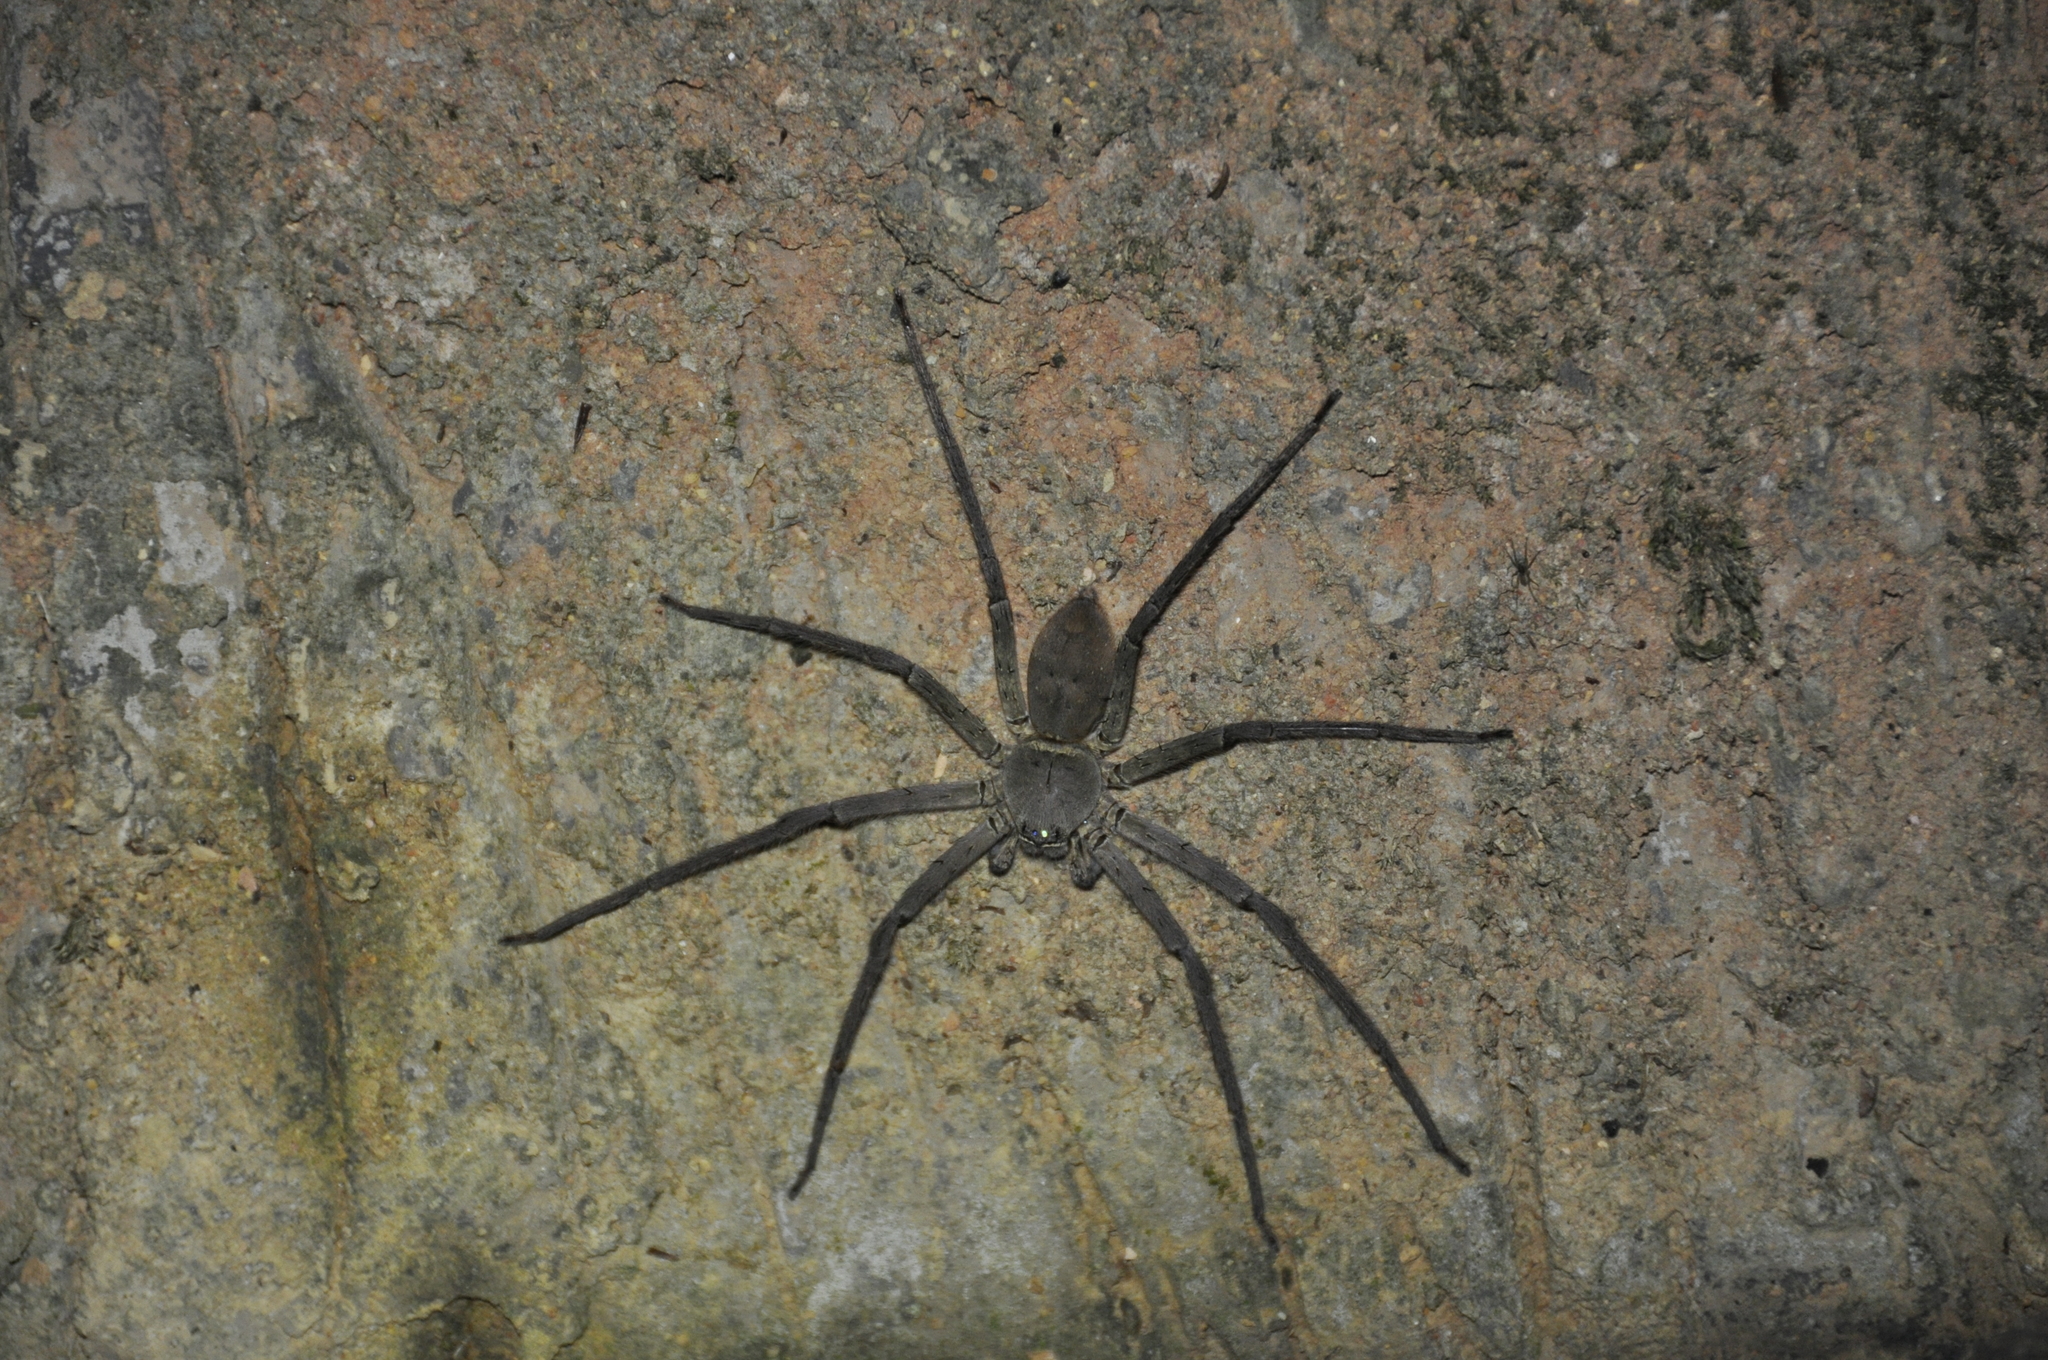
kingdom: Animalia
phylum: Arthropoda
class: Arachnida
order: Araneae
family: Sparassidae
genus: Heteropoda
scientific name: Heteropoda venatoria
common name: Huntsman spider
